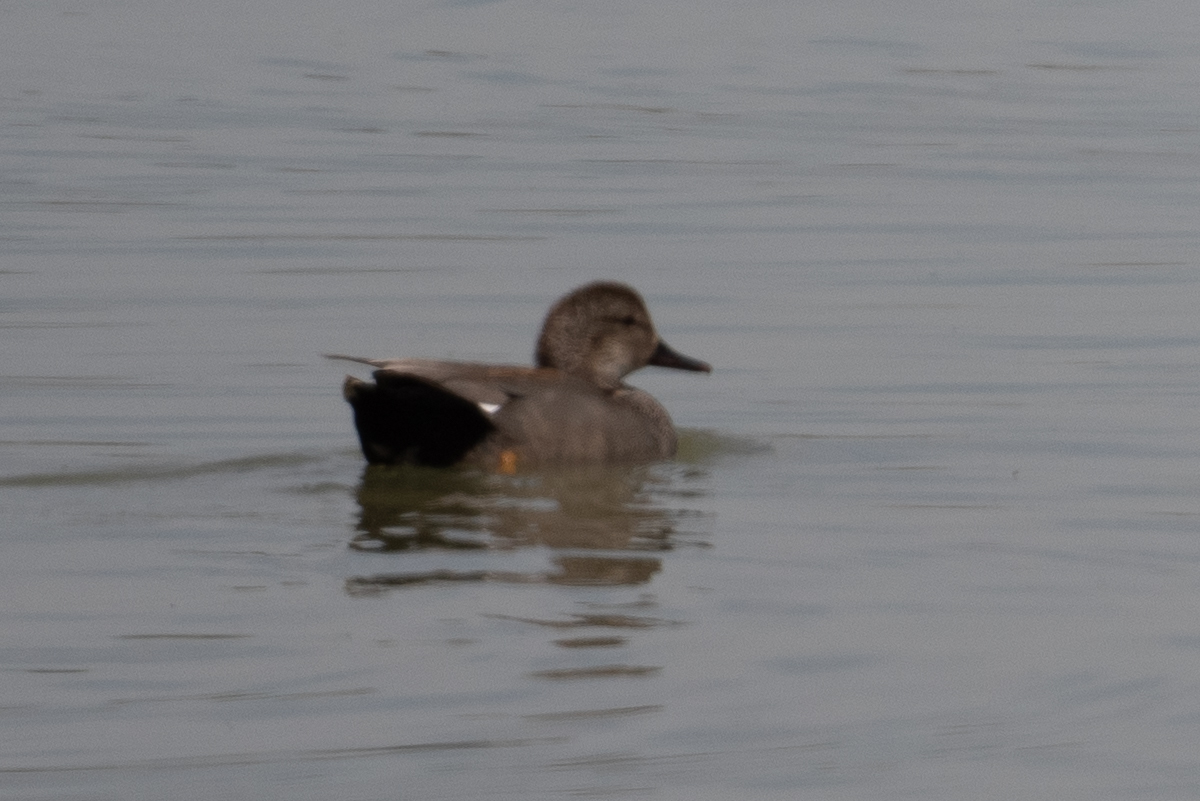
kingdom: Animalia
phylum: Chordata
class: Aves
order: Anseriformes
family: Anatidae
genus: Mareca
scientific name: Mareca strepera
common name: Gadwall
